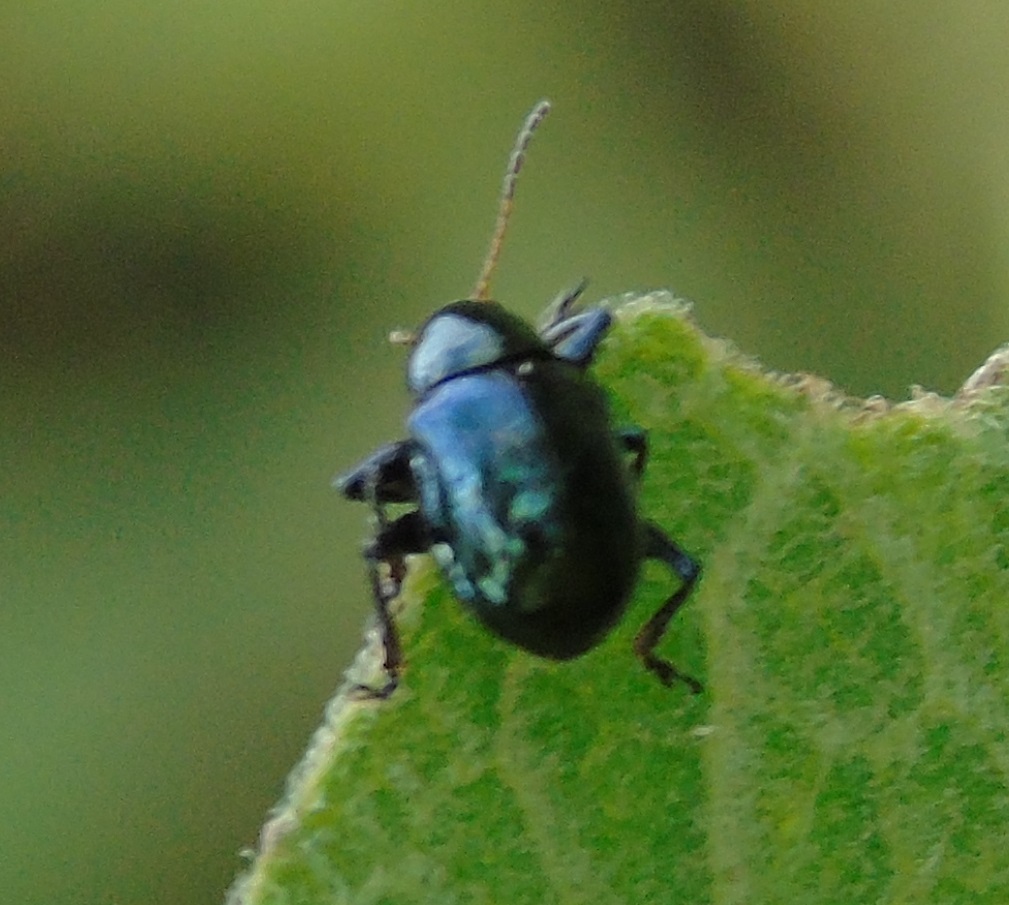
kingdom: Animalia
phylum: Arthropoda
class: Insecta
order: Coleoptera
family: Chrysomelidae
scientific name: Chrysomelidae
